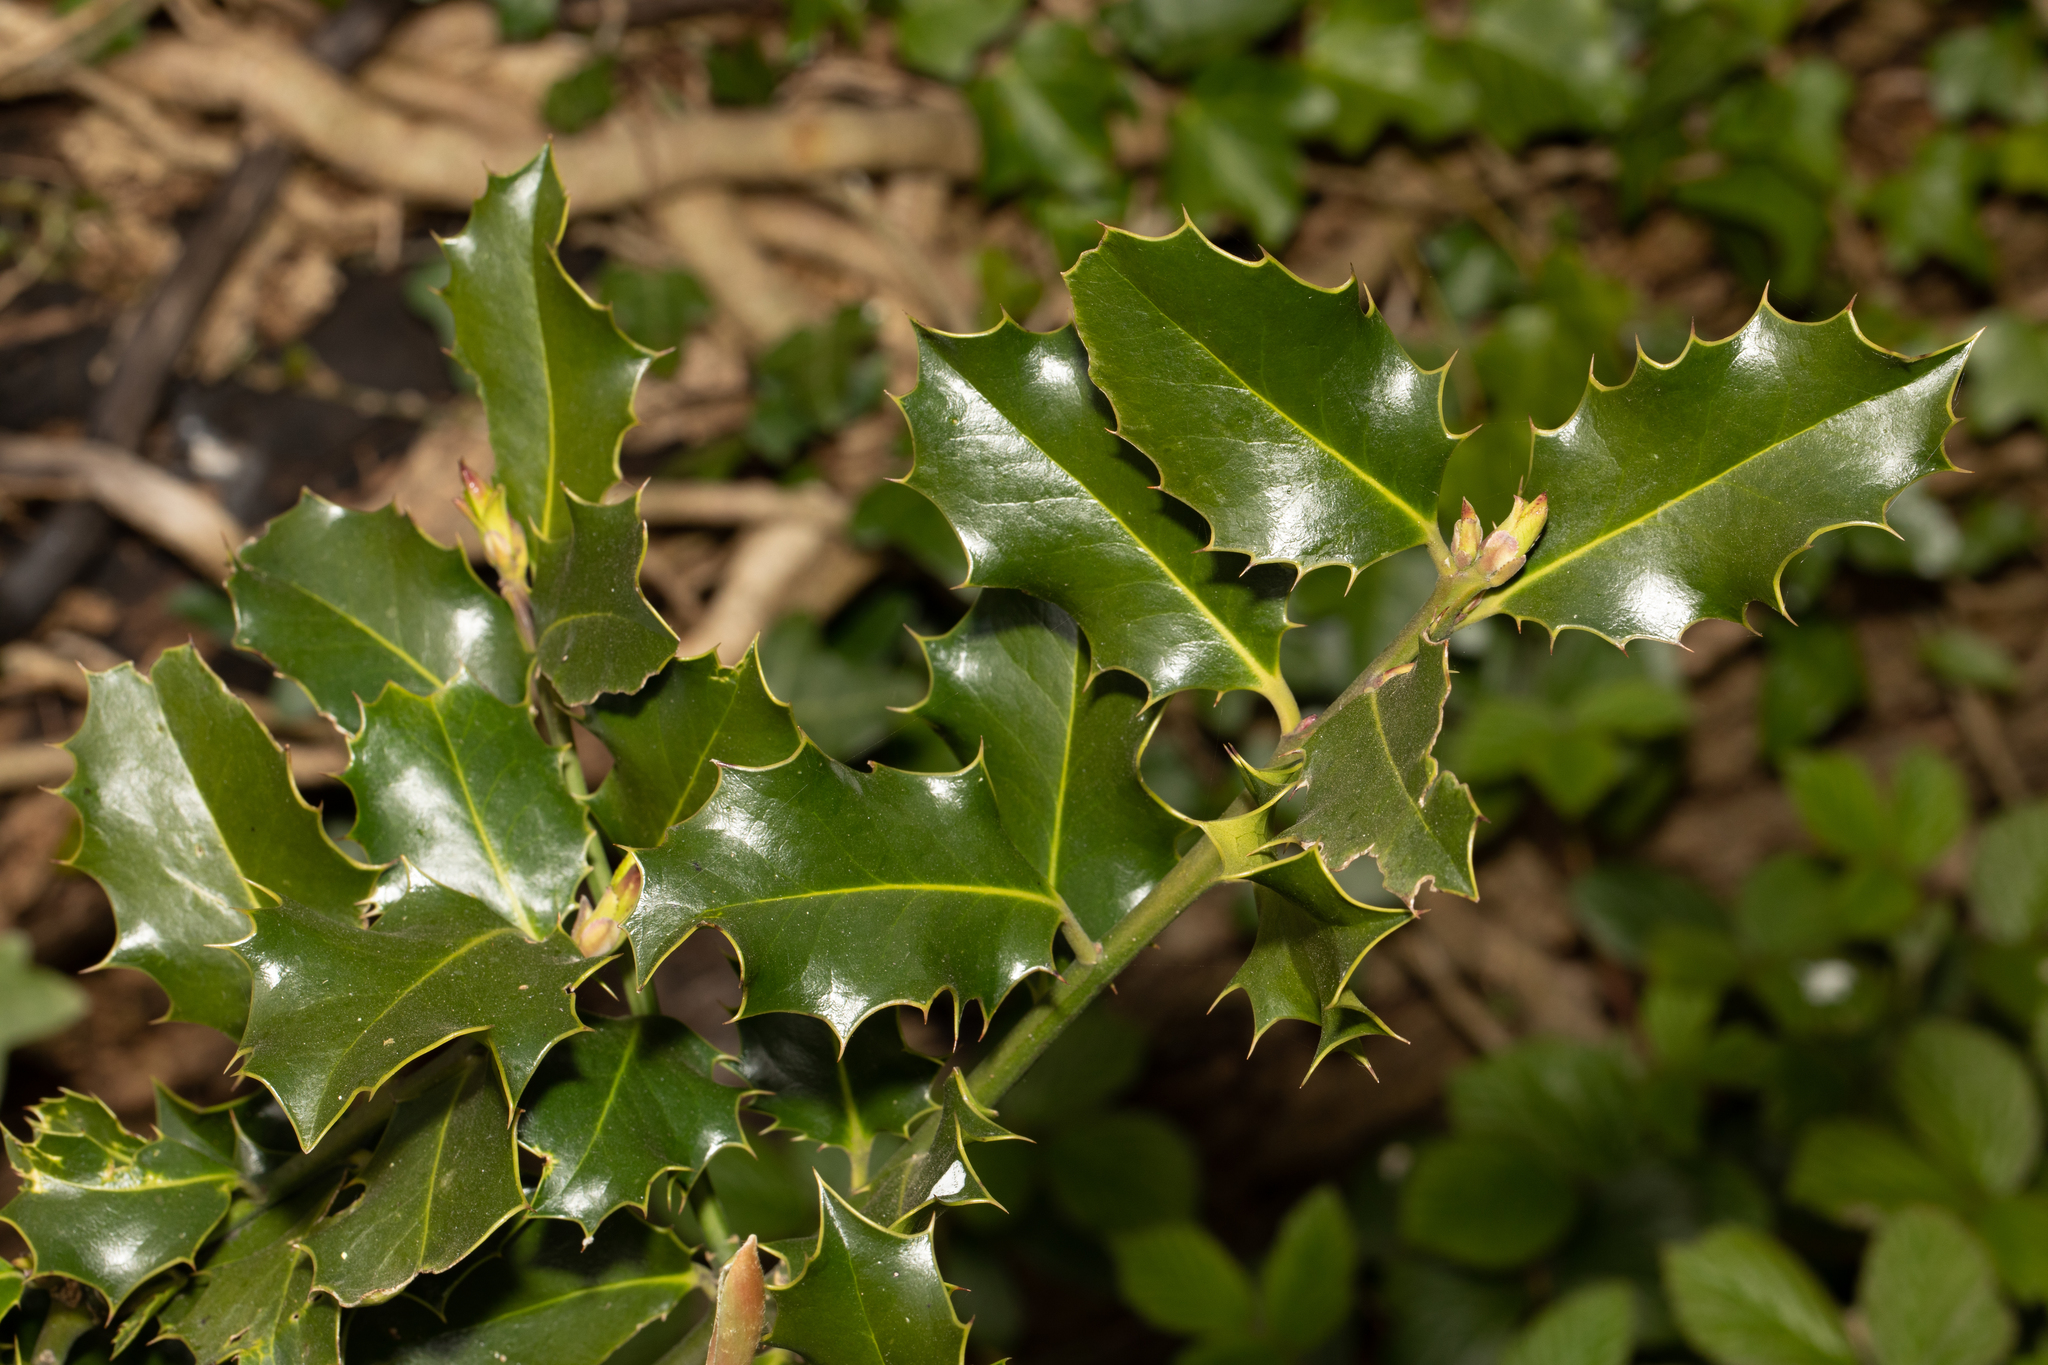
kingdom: Plantae
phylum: Tracheophyta
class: Magnoliopsida
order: Aquifoliales
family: Aquifoliaceae
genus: Ilex
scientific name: Ilex aquifolium
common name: English holly
